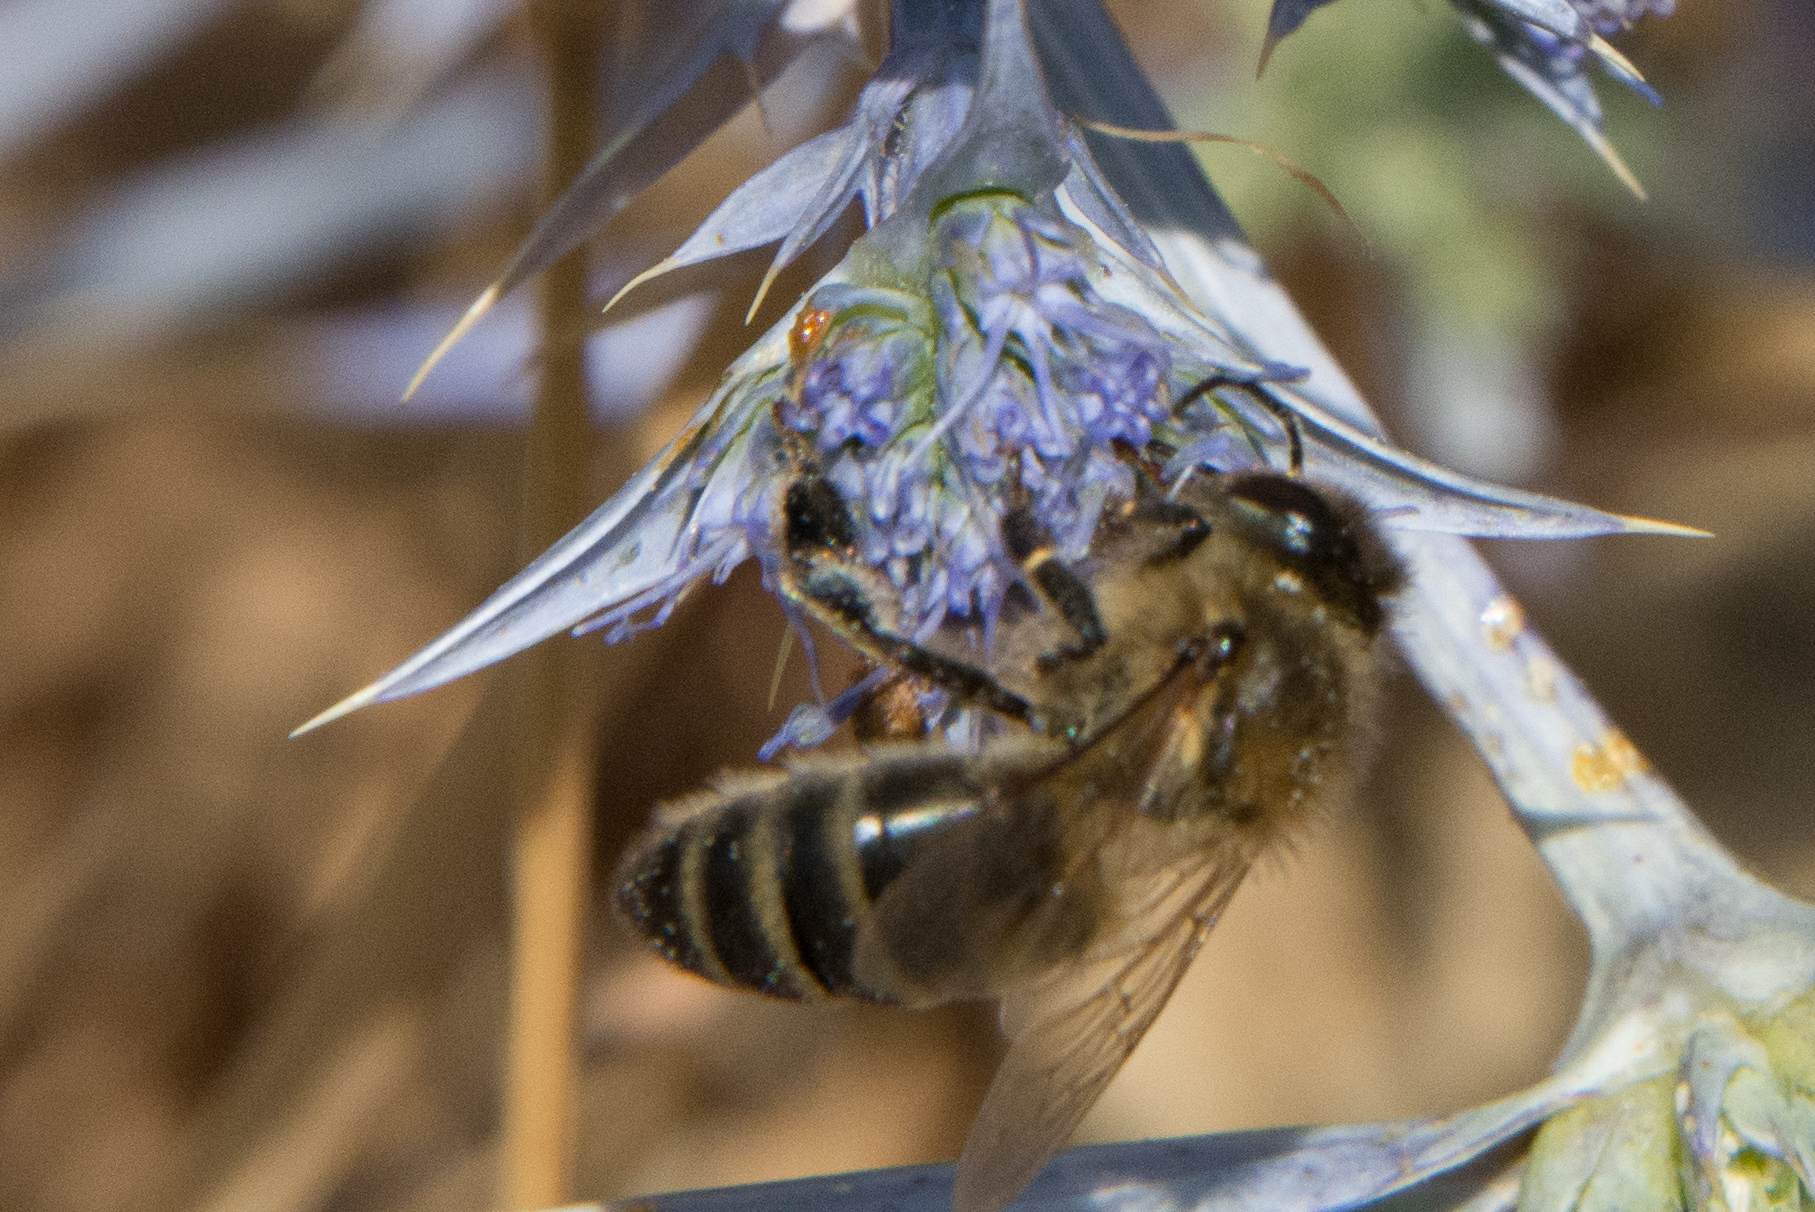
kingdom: Animalia
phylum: Arthropoda
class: Insecta
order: Hymenoptera
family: Apidae
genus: Apis
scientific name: Apis mellifera
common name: Honey bee
